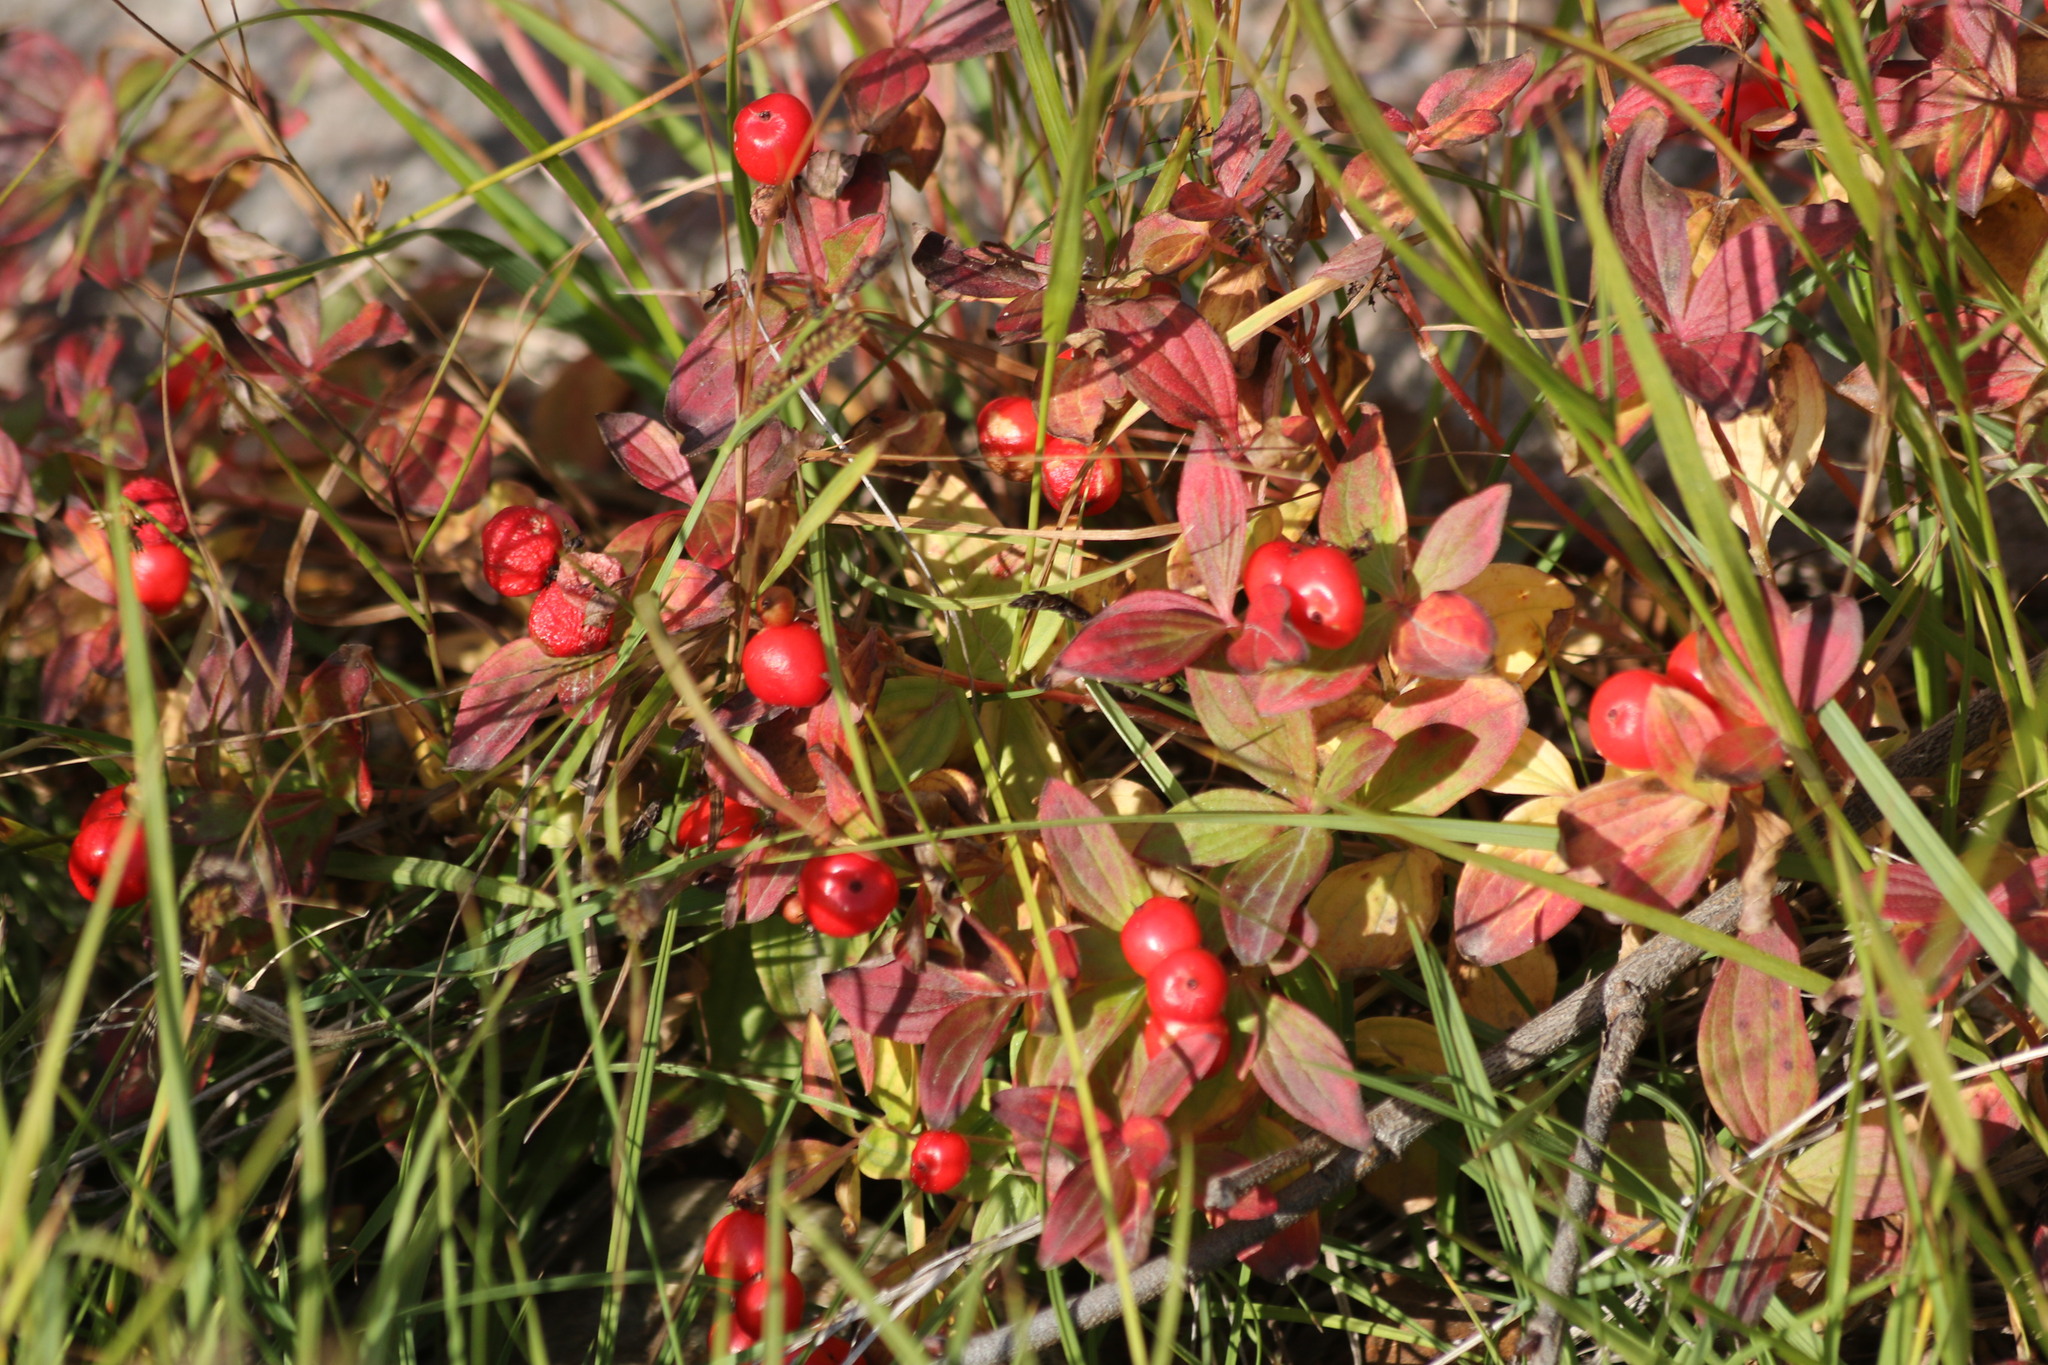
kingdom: Plantae
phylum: Tracheophyta
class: Magnoliopsida
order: Cornales
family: Cornaceae
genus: Cornus
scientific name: Cornus suecica
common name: Dwarf cornel
